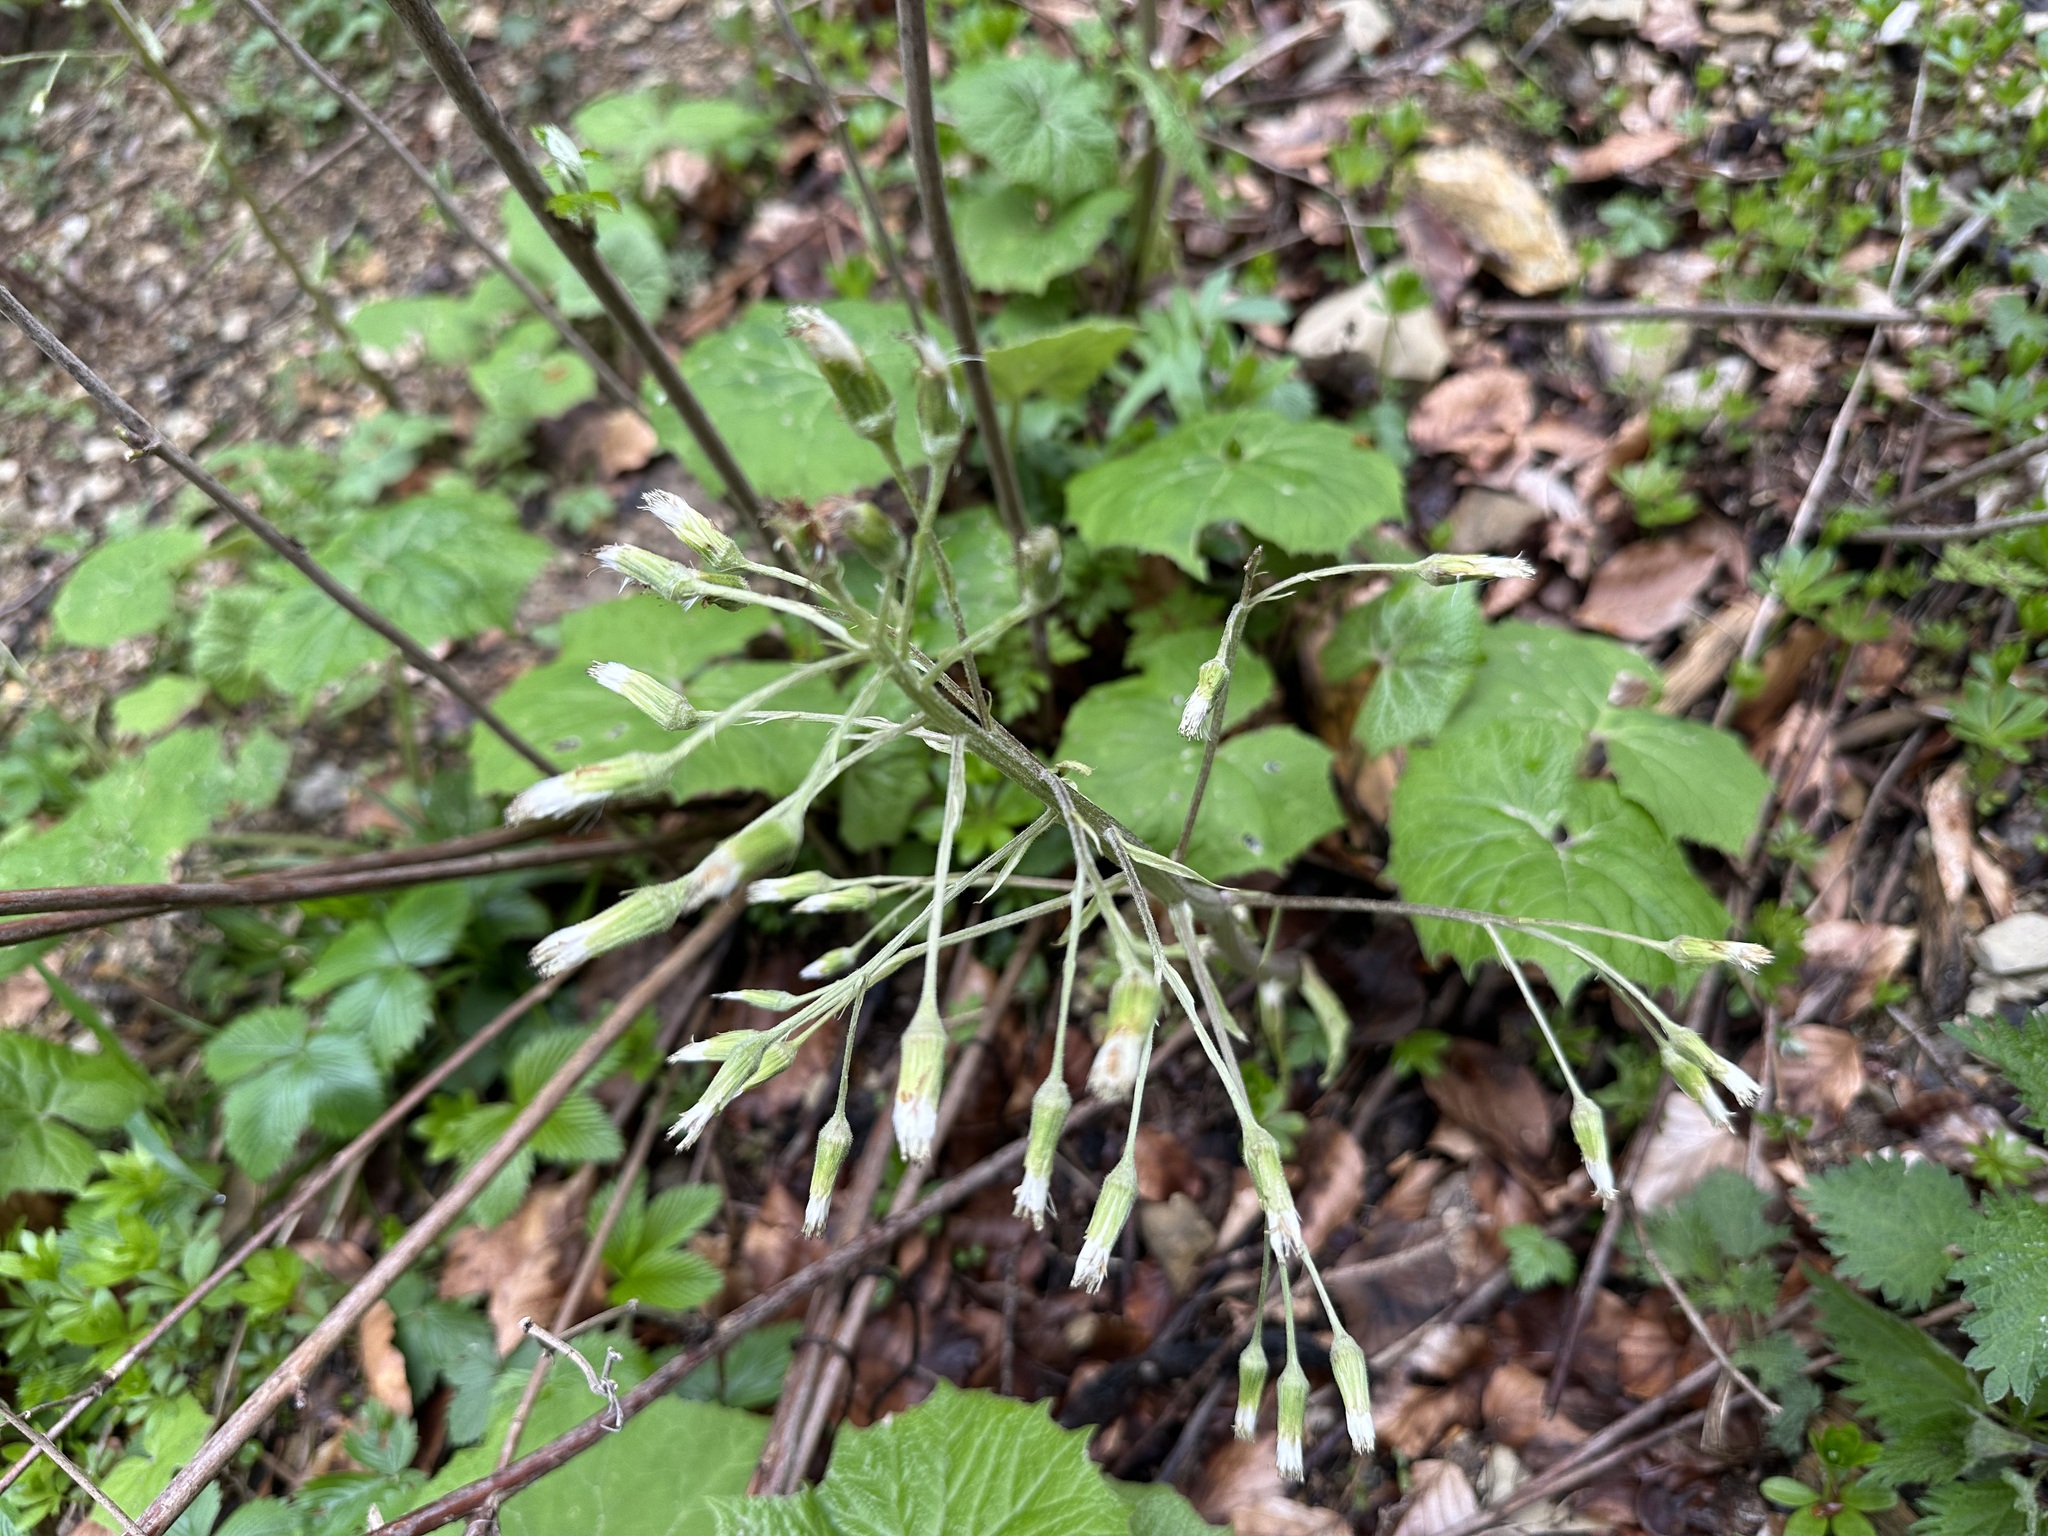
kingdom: Plantae
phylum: Tracheophyta
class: Magnoliopsida
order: Asterales
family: Asteraceae
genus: Petasites
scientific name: Petasites albus
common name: White butterbur
